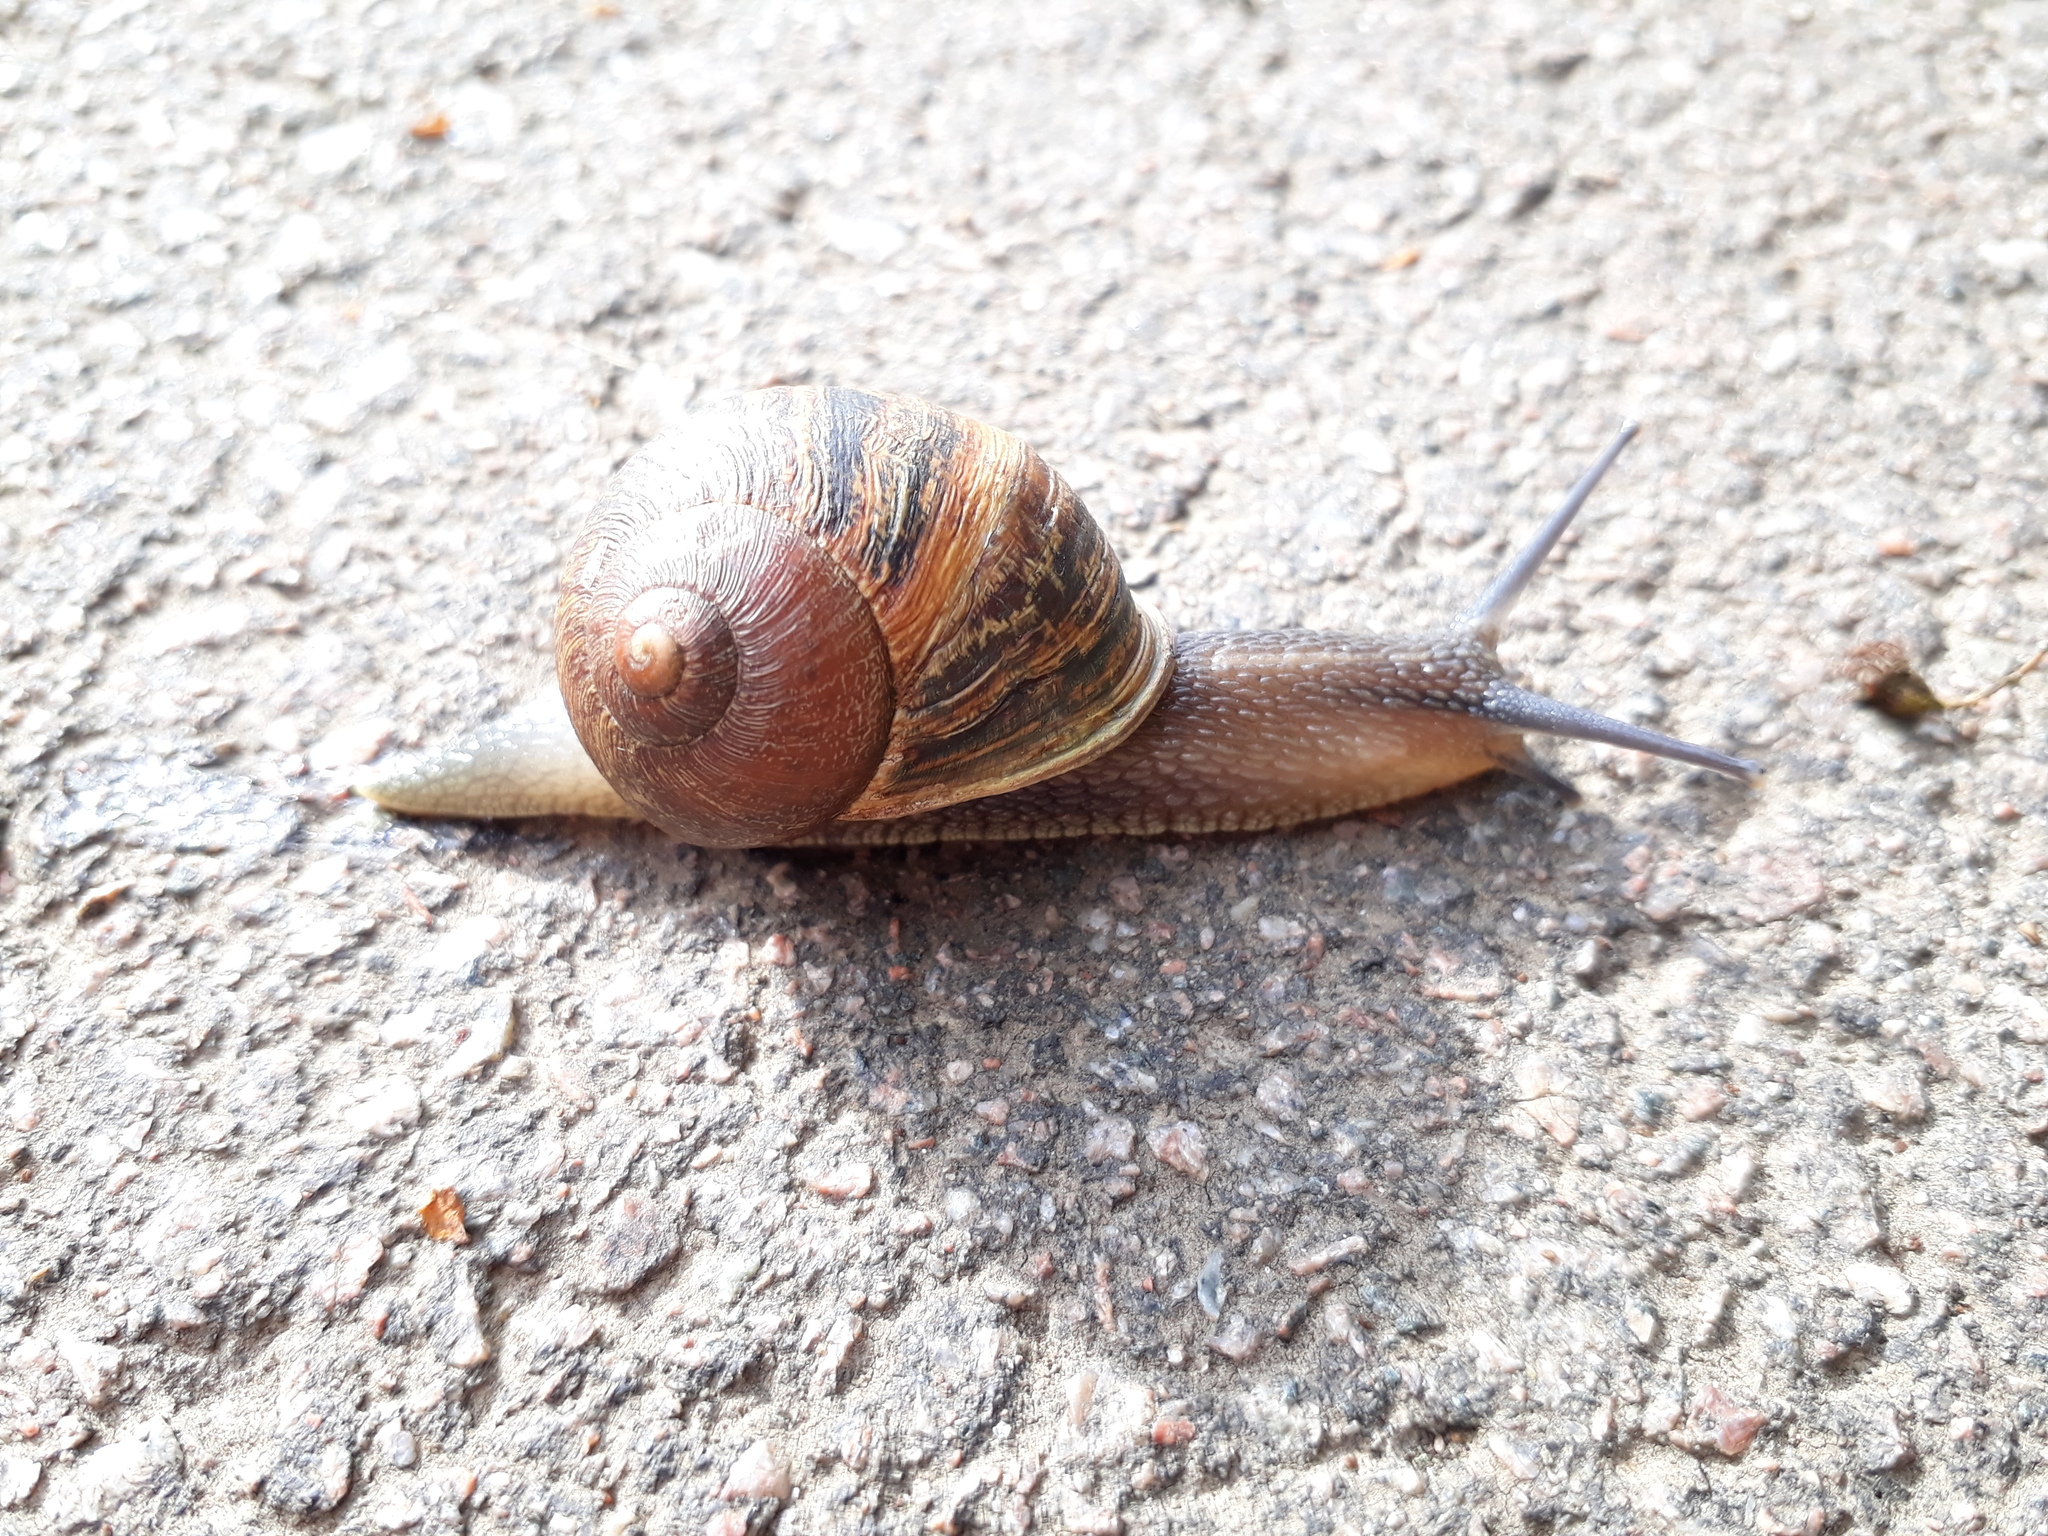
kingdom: Animalia
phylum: Mollusca
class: Gastropoda
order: Stylommatophora
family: Helicidae
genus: Cornu
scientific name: Cornu aspersum
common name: Brown garden snail
